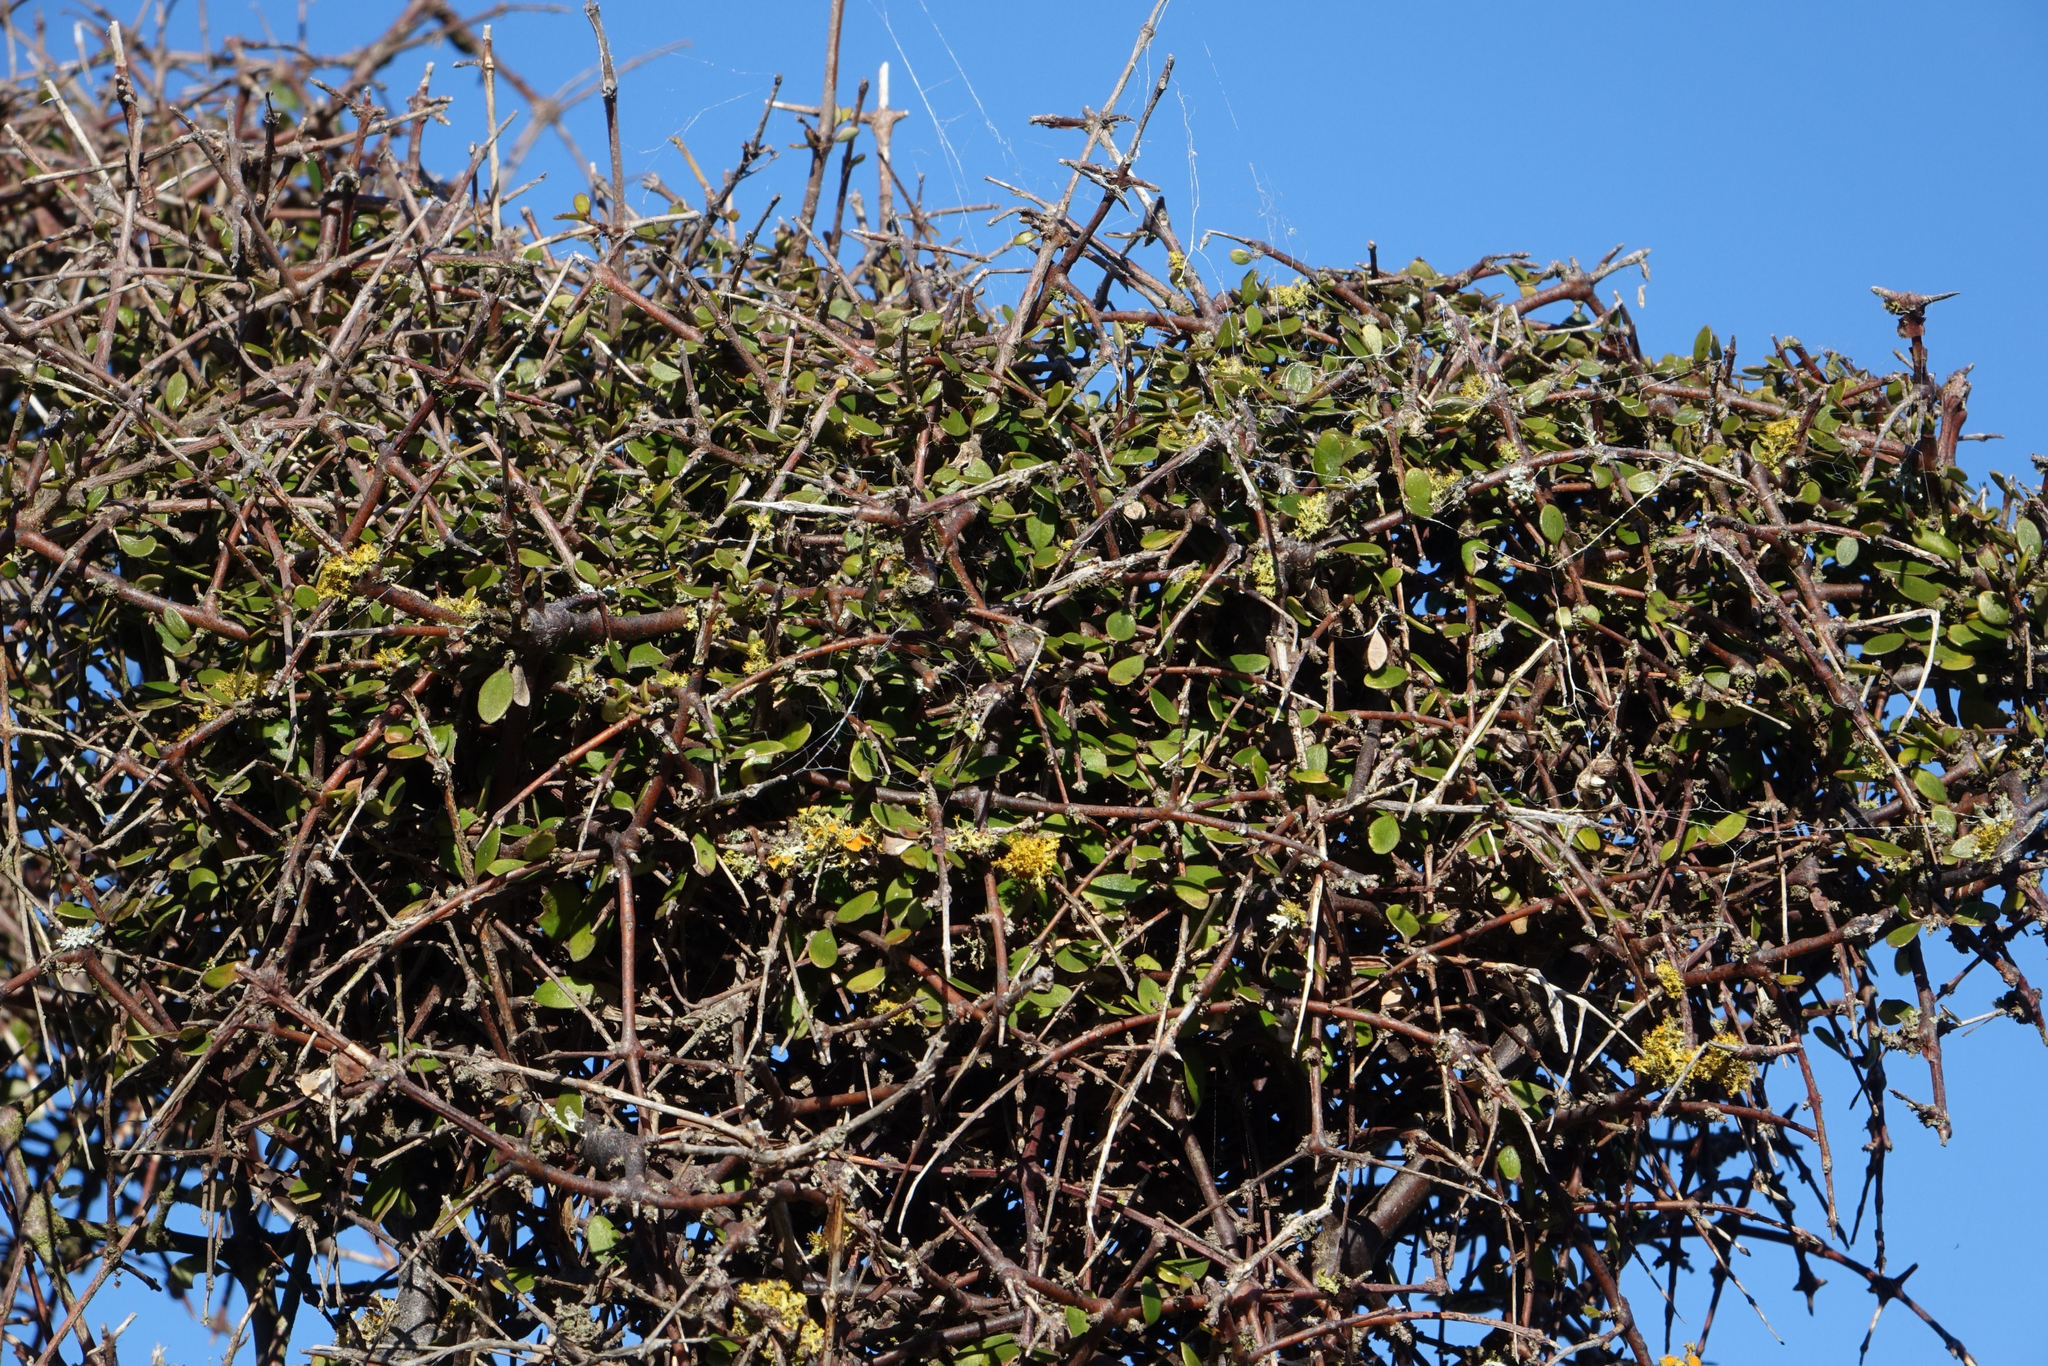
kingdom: Plantae
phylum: Tracheophyta
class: Magnoliopsida
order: Gentianales
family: Rubiaceae
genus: Coprosma
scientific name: Coprosma crassifolia
